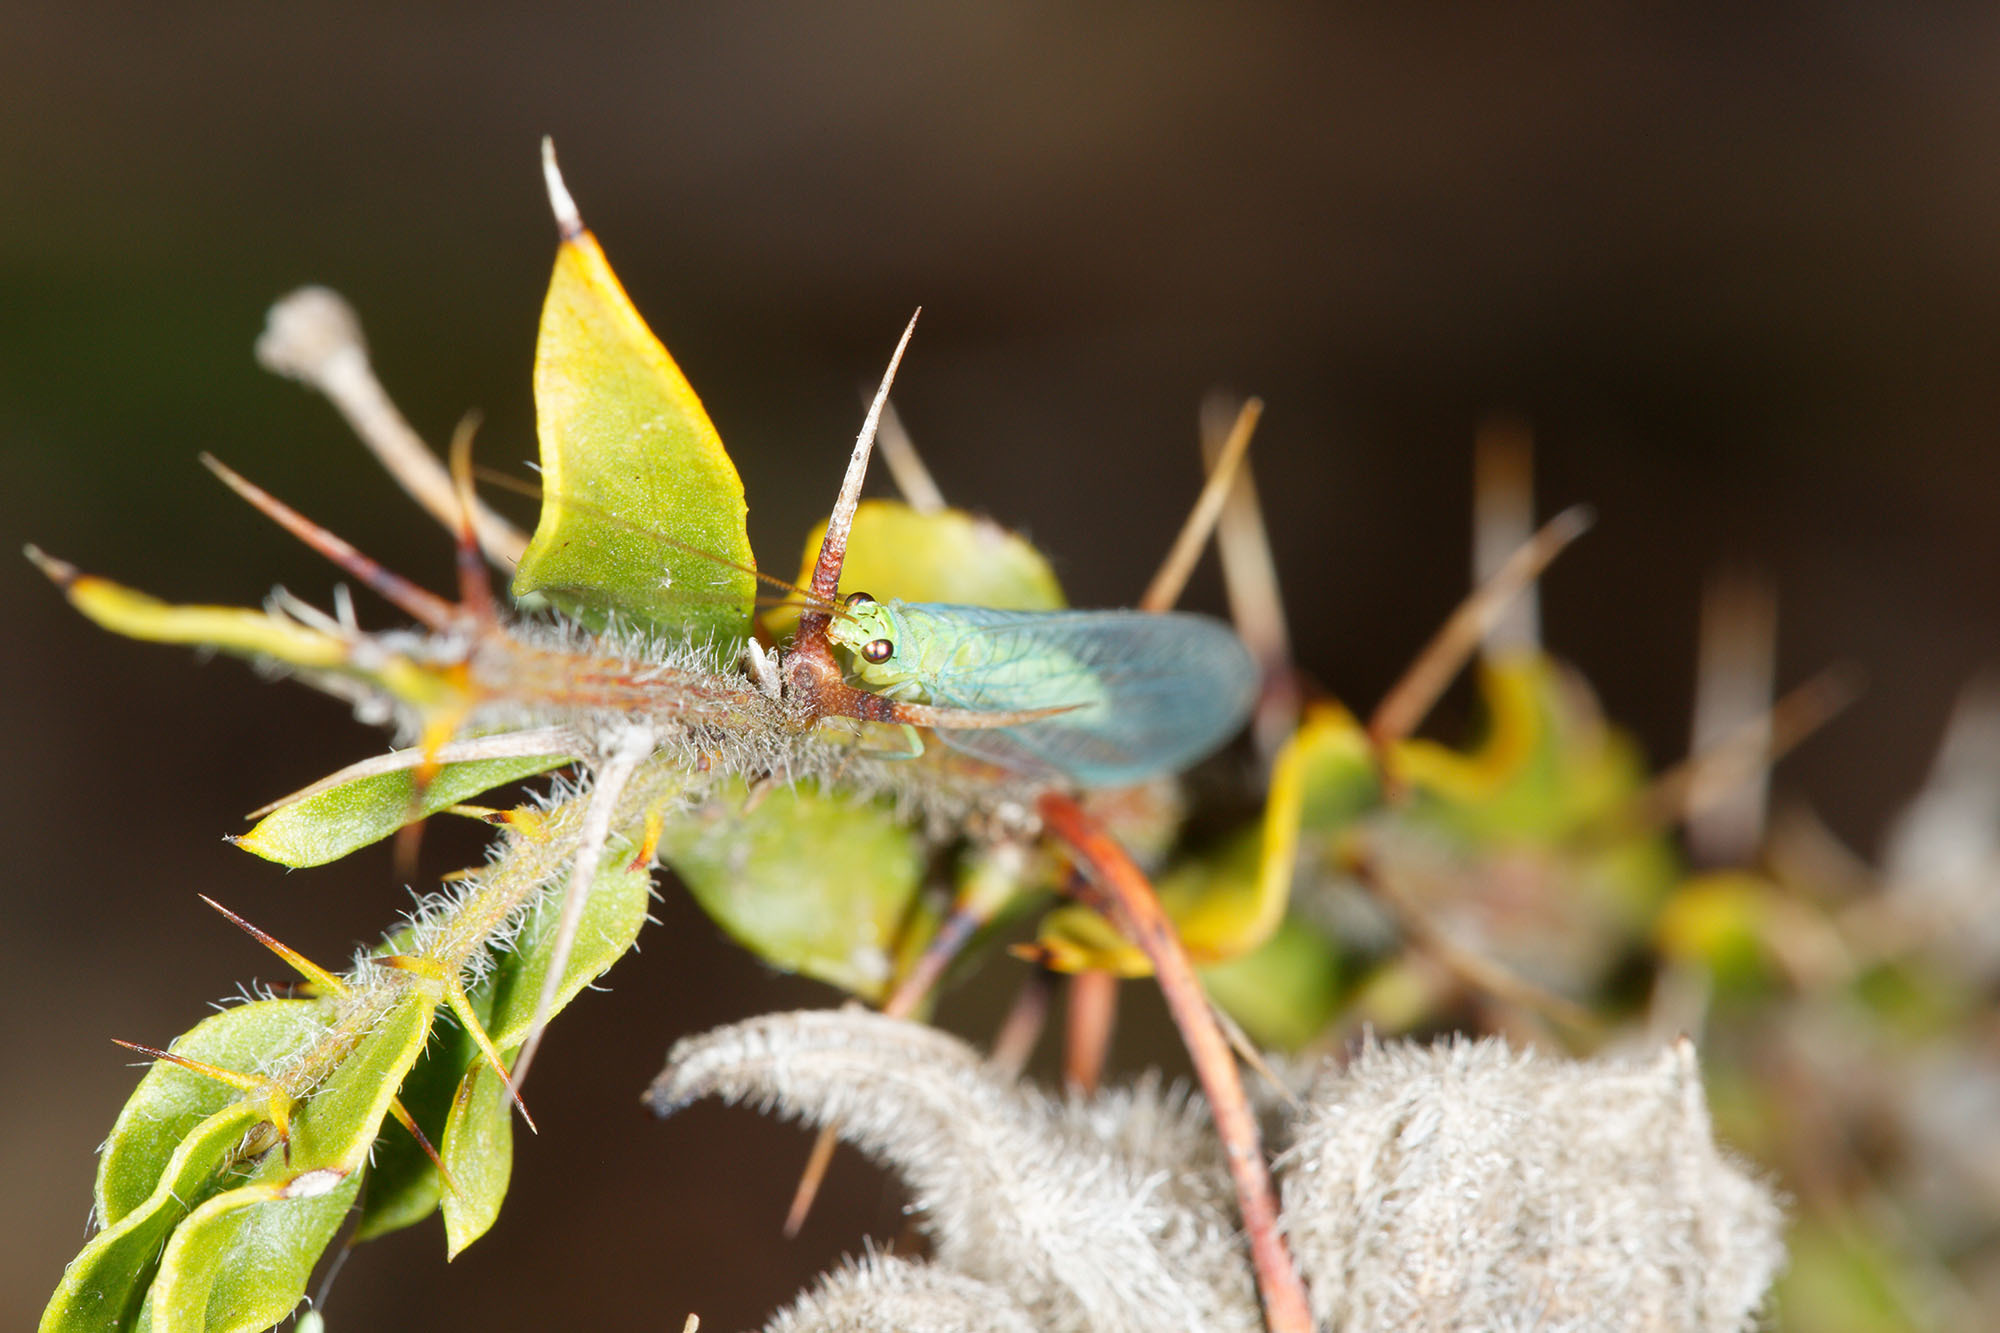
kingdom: Animalia
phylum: Arthropoda
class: Insecta
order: Neuroptera
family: Chrysopidae
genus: Mallada
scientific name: Mallada signatus
